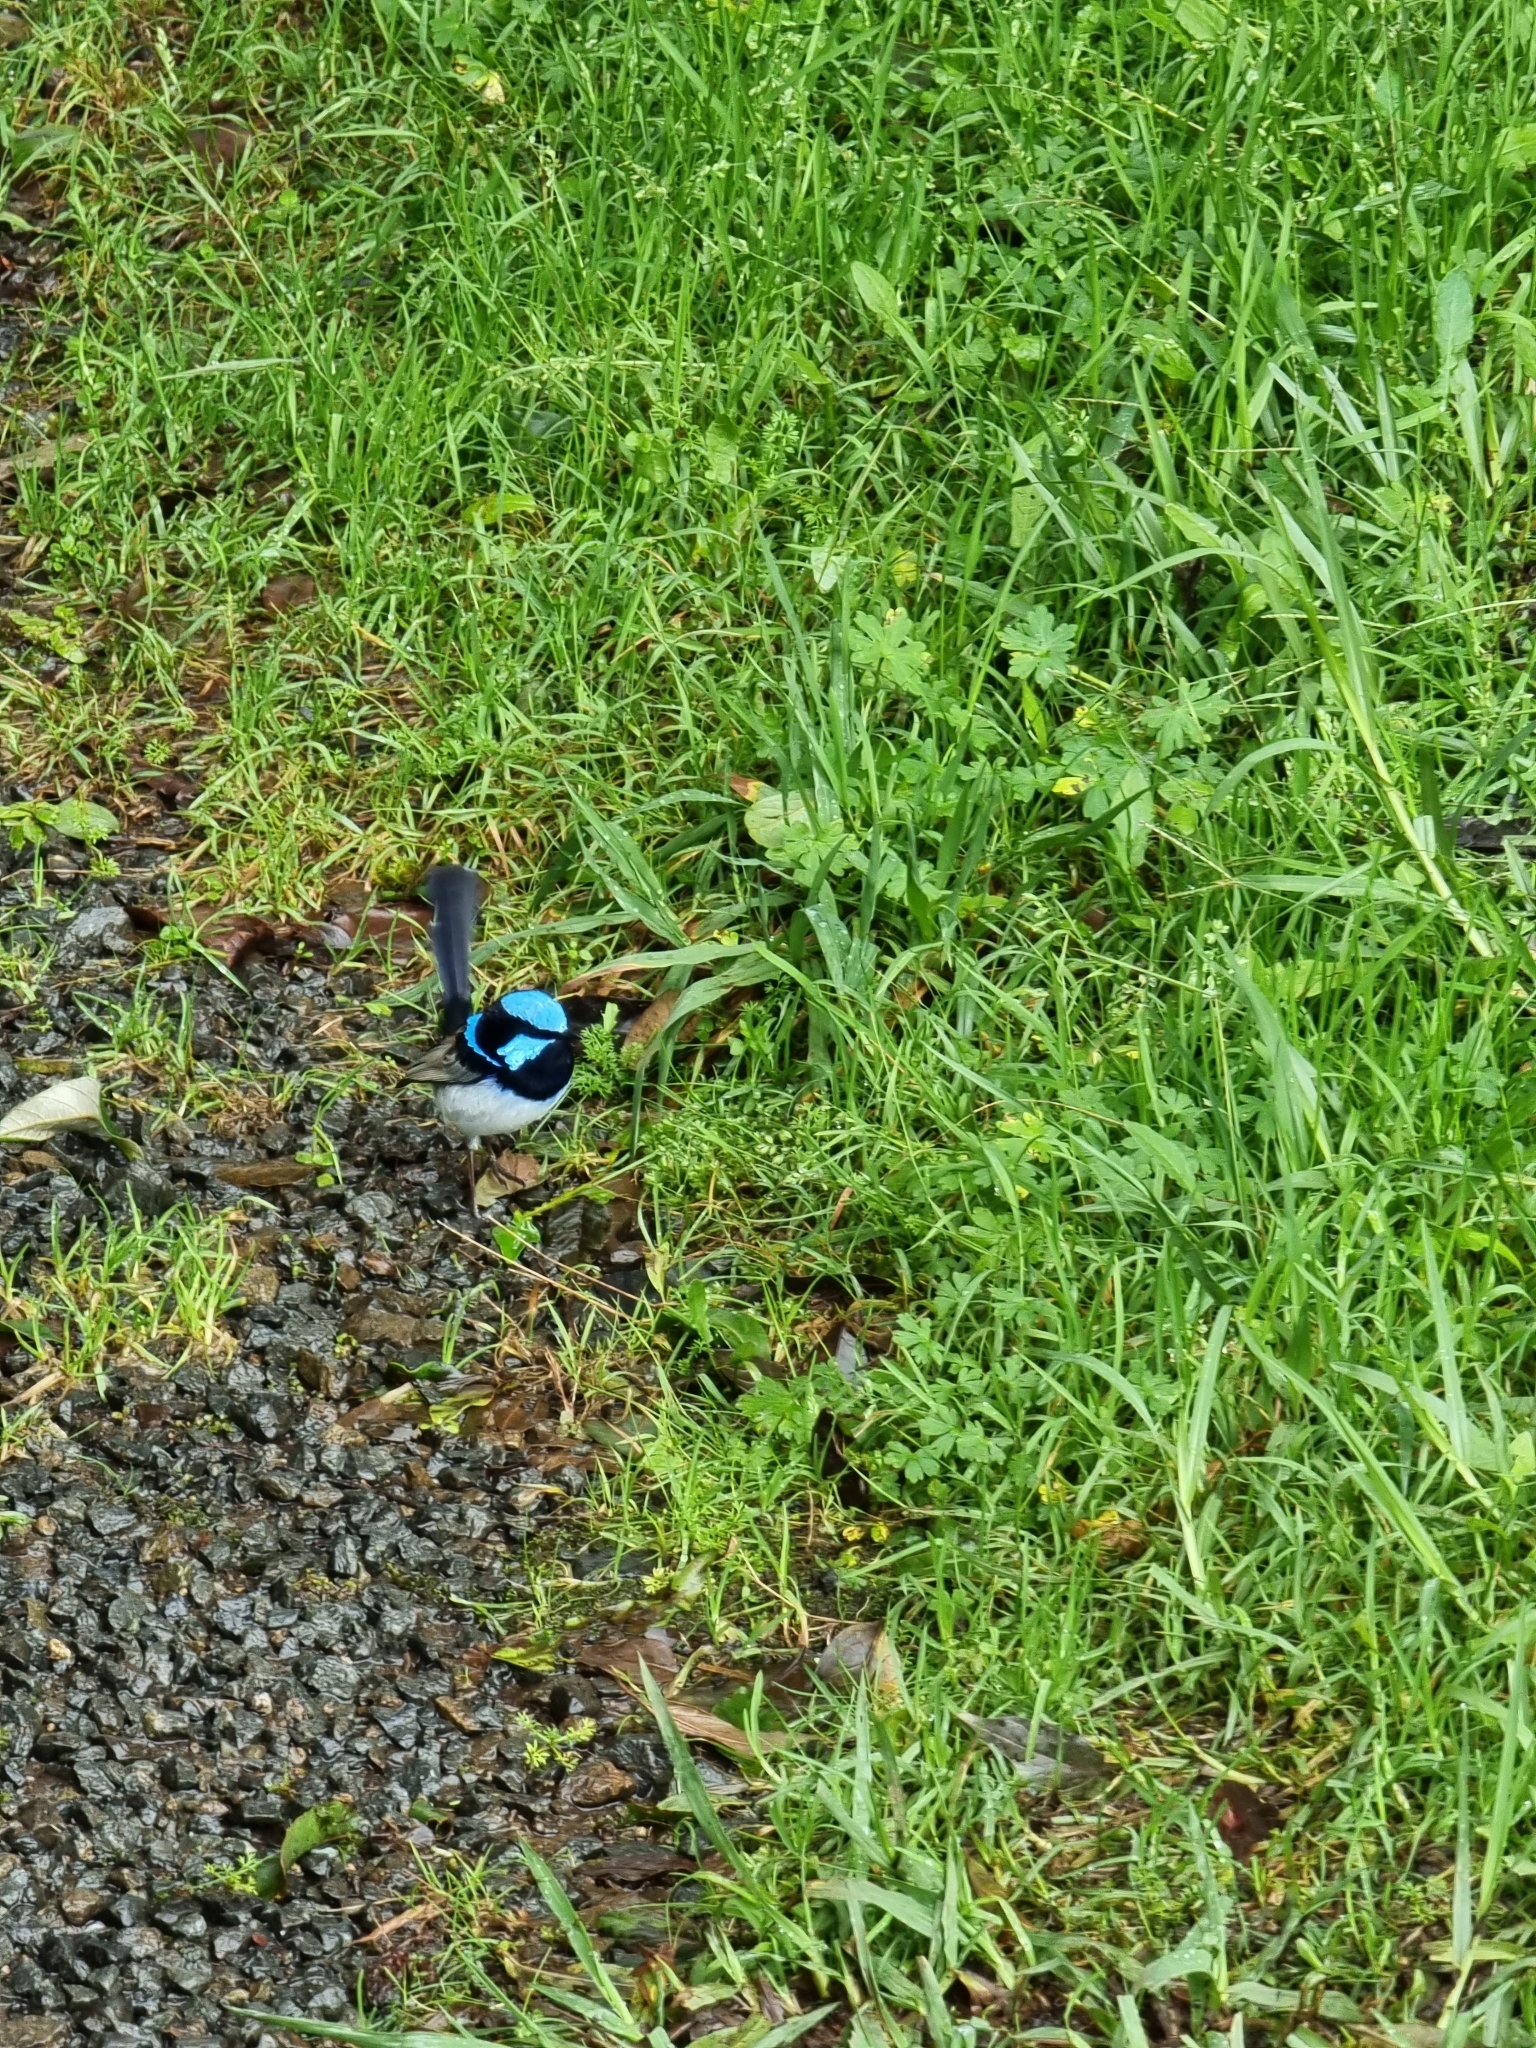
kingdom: Animalia
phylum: Chordata
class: Aves
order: Passeriformes
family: Maluridae
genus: Malurus
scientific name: Malurus cyaneus
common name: Superb fairywren
